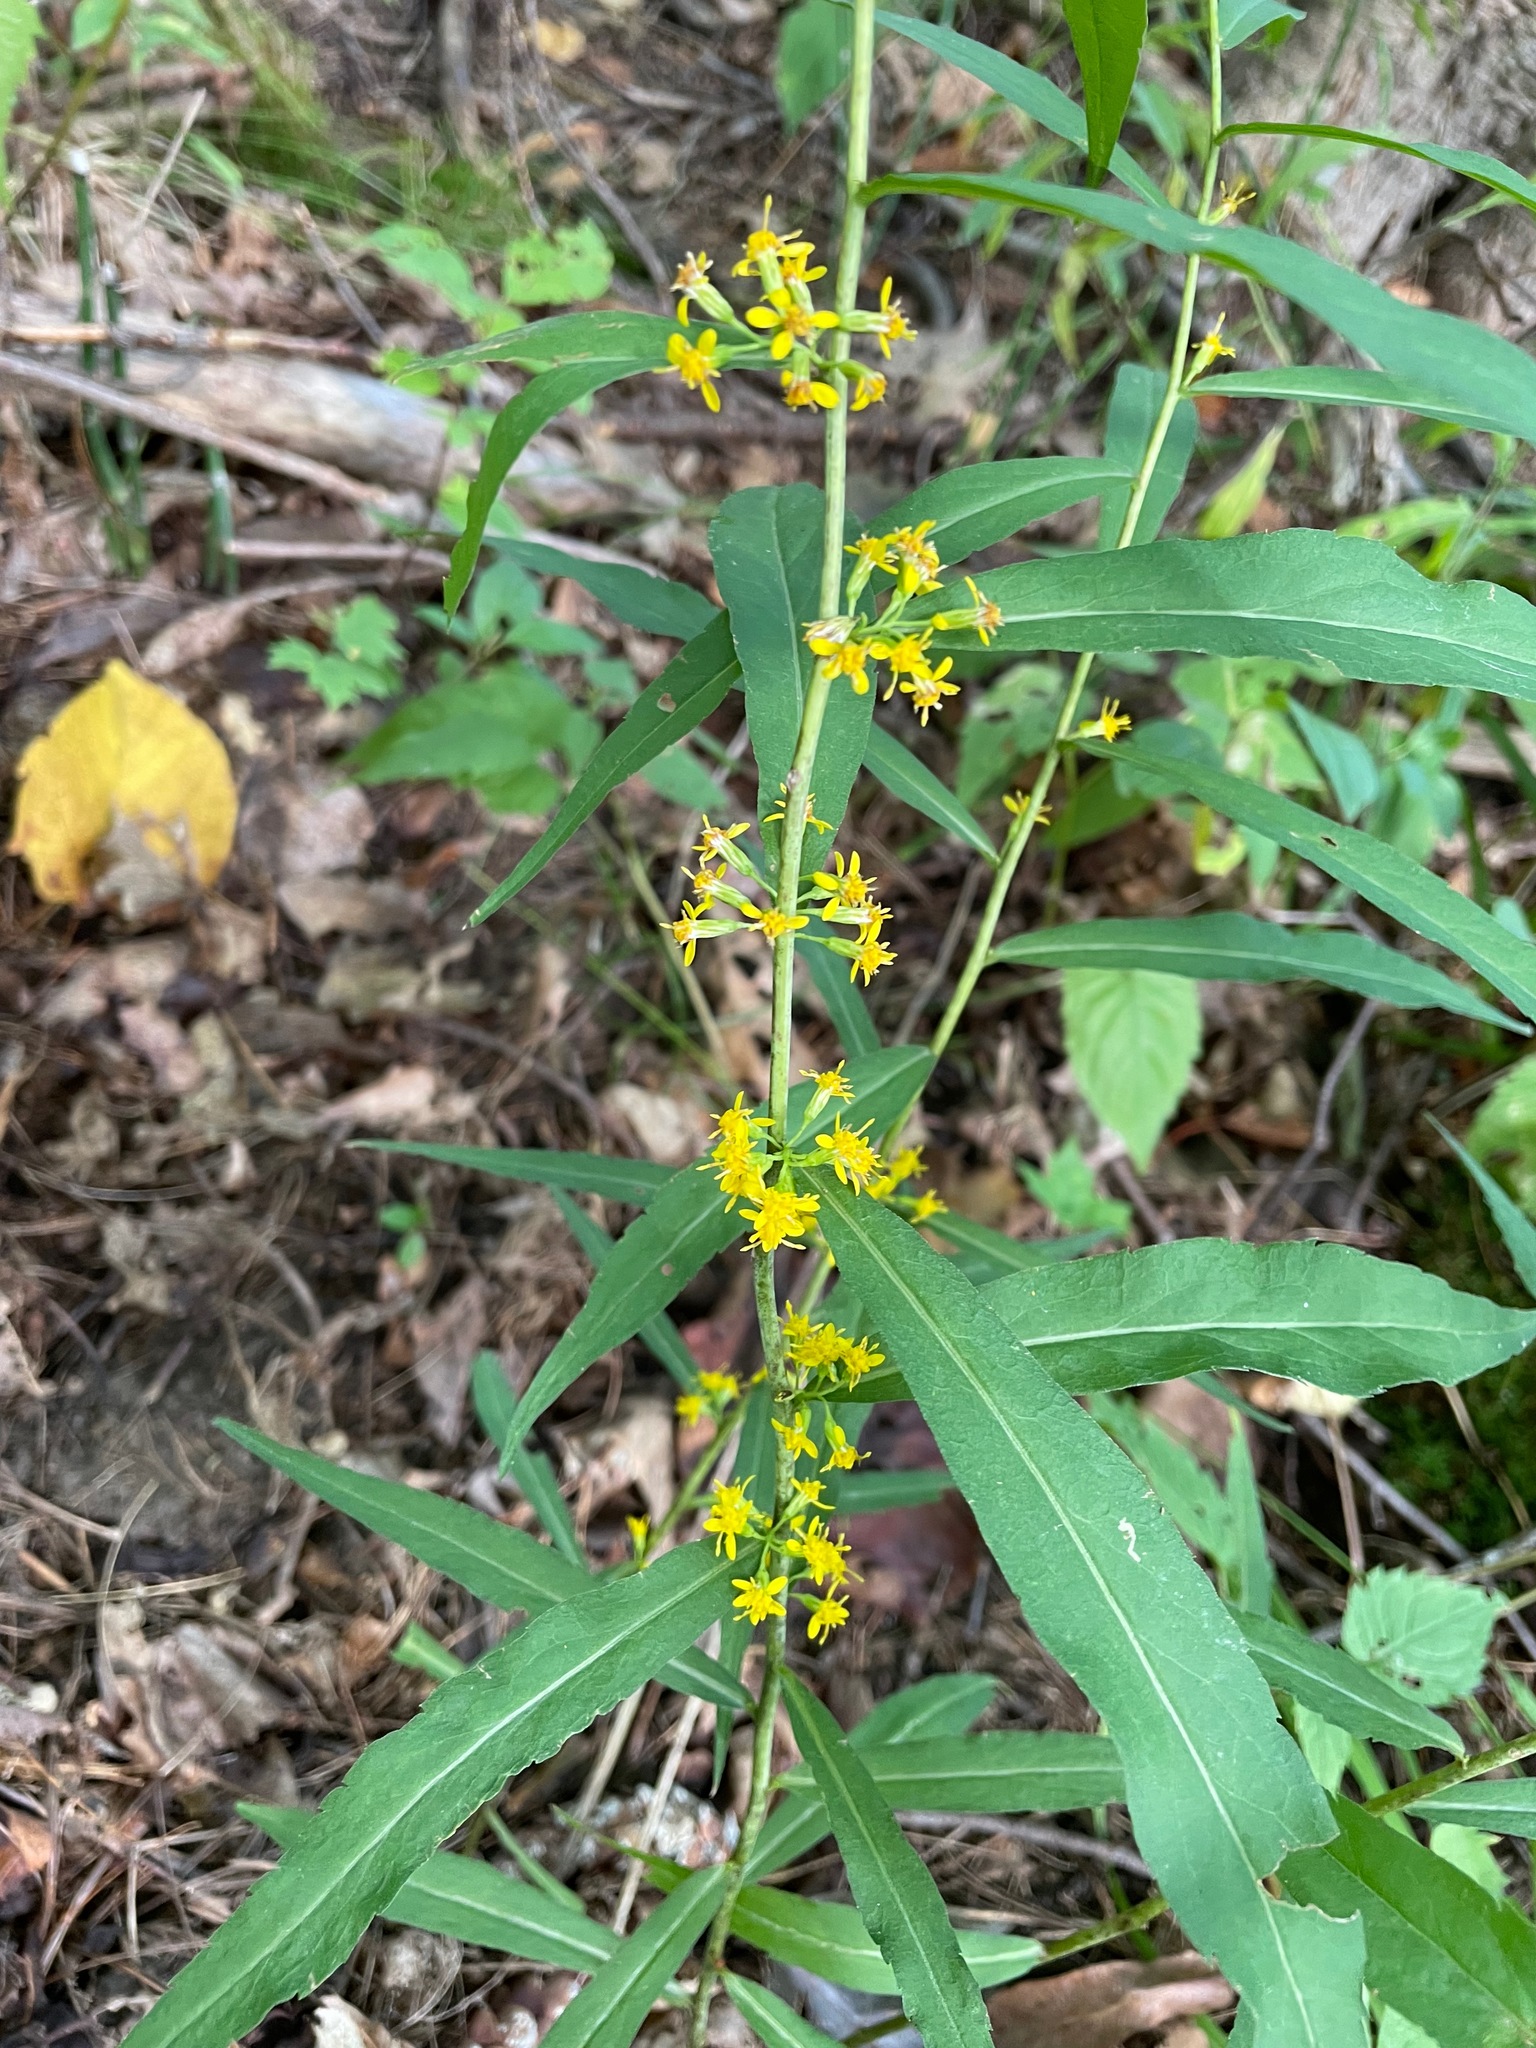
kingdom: Plantae
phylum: Tracheophyta
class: Magnoliopsida
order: Asterales
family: Asteraceae
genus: Solidago
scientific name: Solidago caesia
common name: Woodland goldenrod
